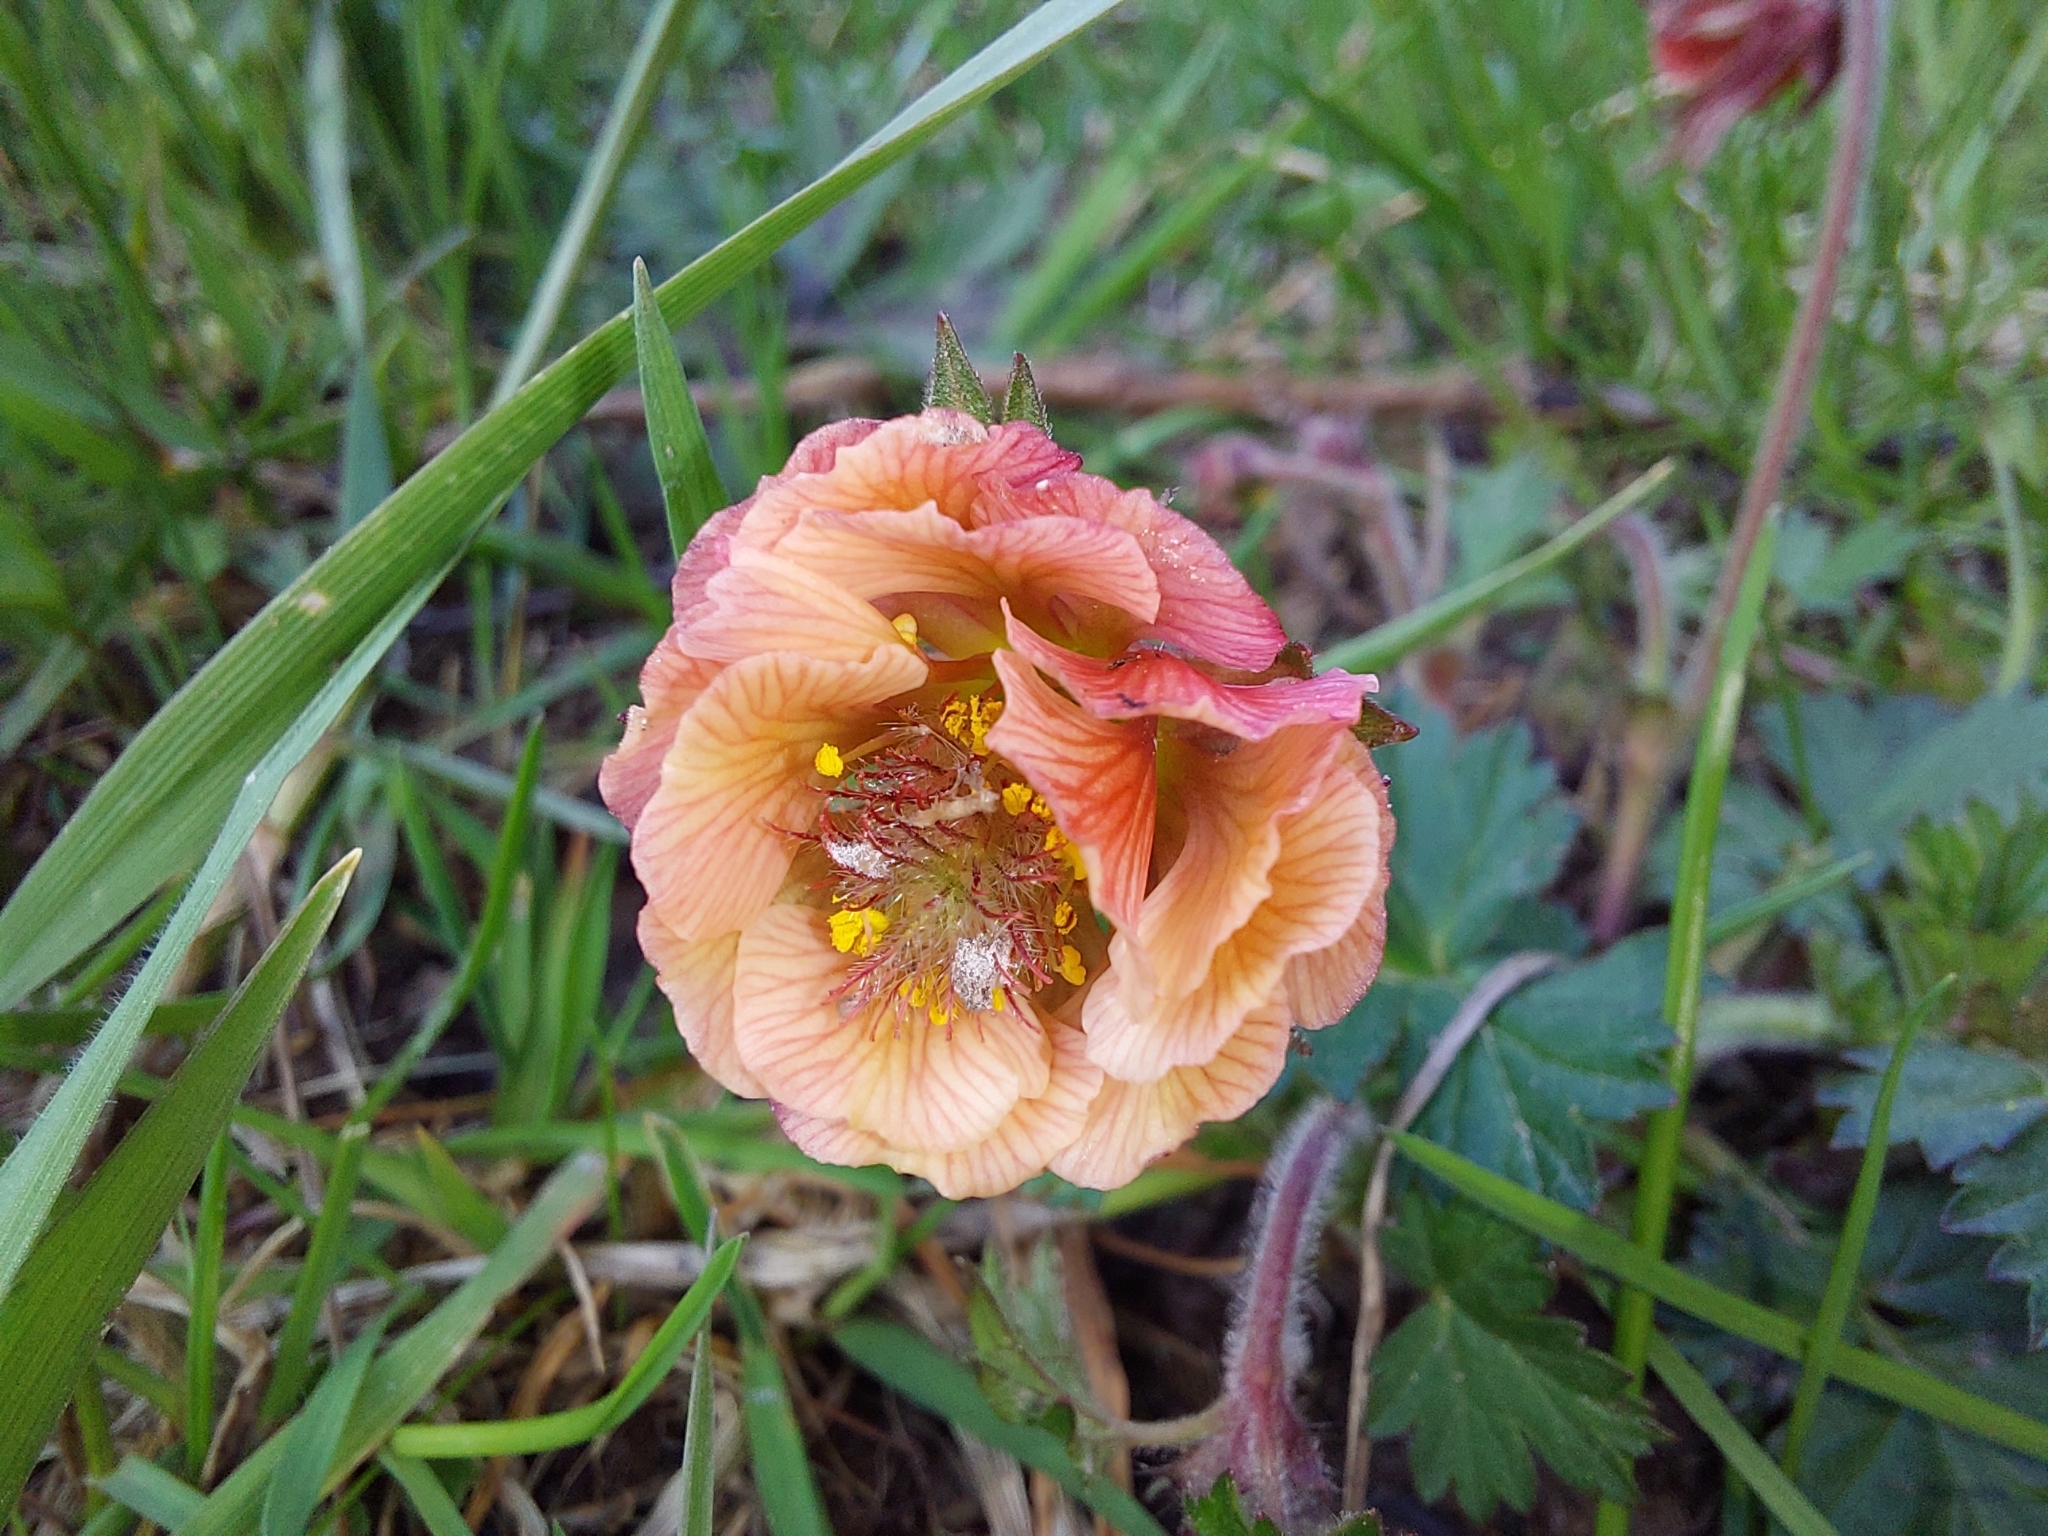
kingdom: Plantae
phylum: Tracheophyta
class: Magnoliopsida
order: Rosales
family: Rosaceae
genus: Geum
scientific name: Geum rivale
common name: Water avens
